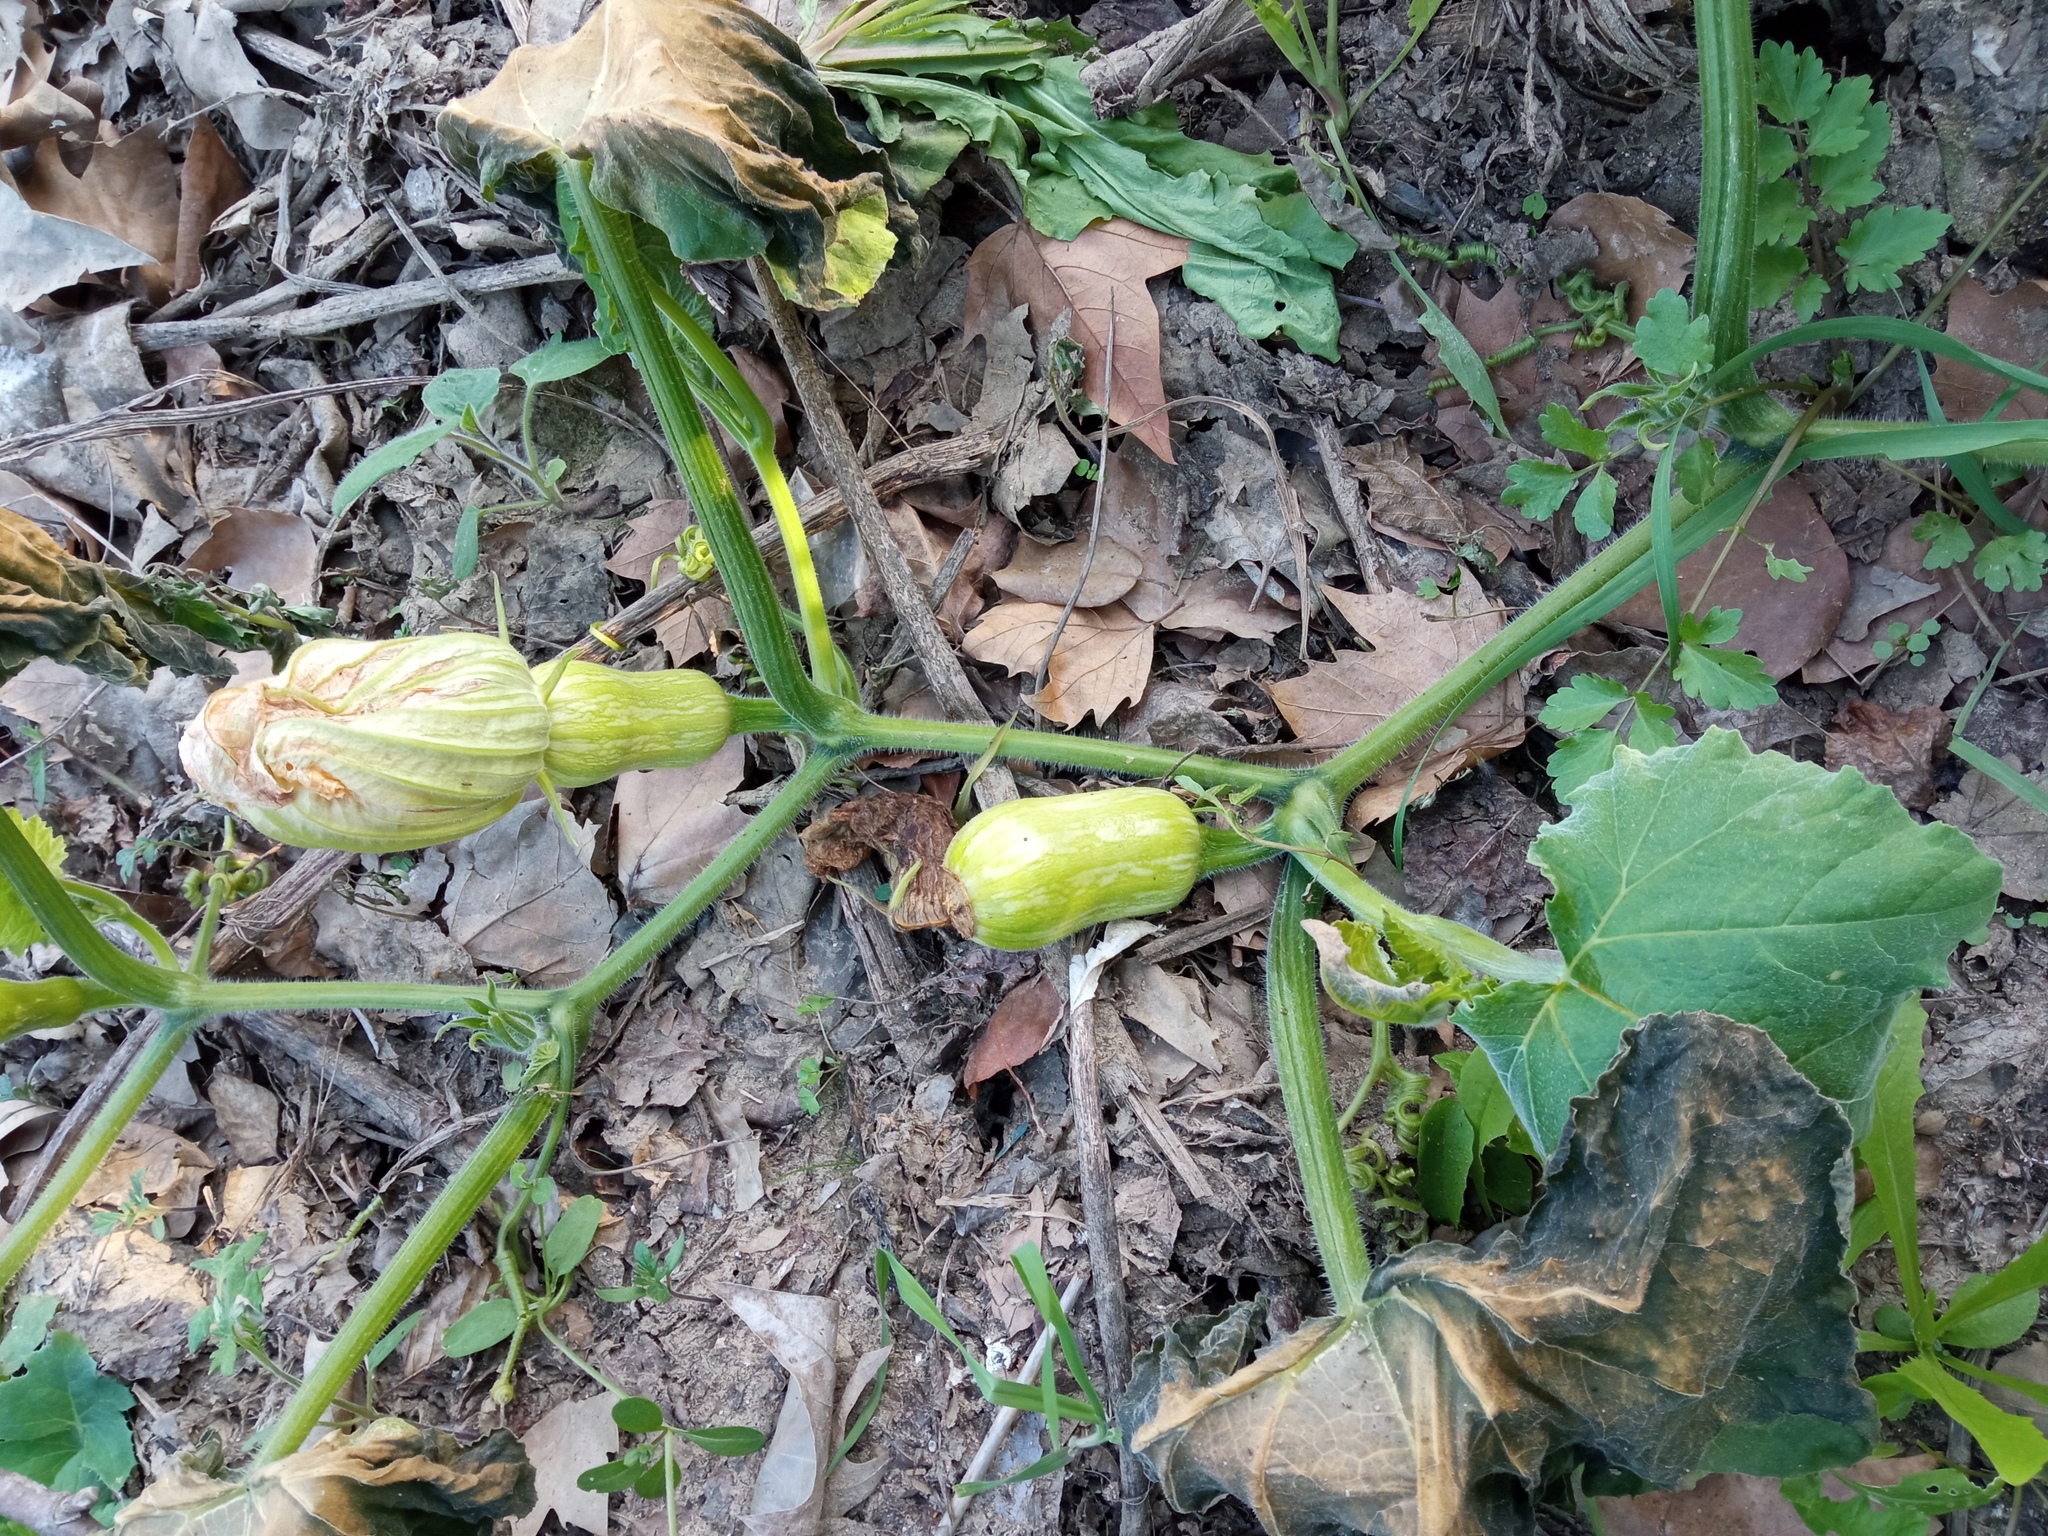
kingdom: Plantae
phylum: Tracheophyta
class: Magnoliopsida
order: Cucurbitales
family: Cucurbitaceae
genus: Cucurbita
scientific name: Cucurbita moschata
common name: Squash / pumpkin
